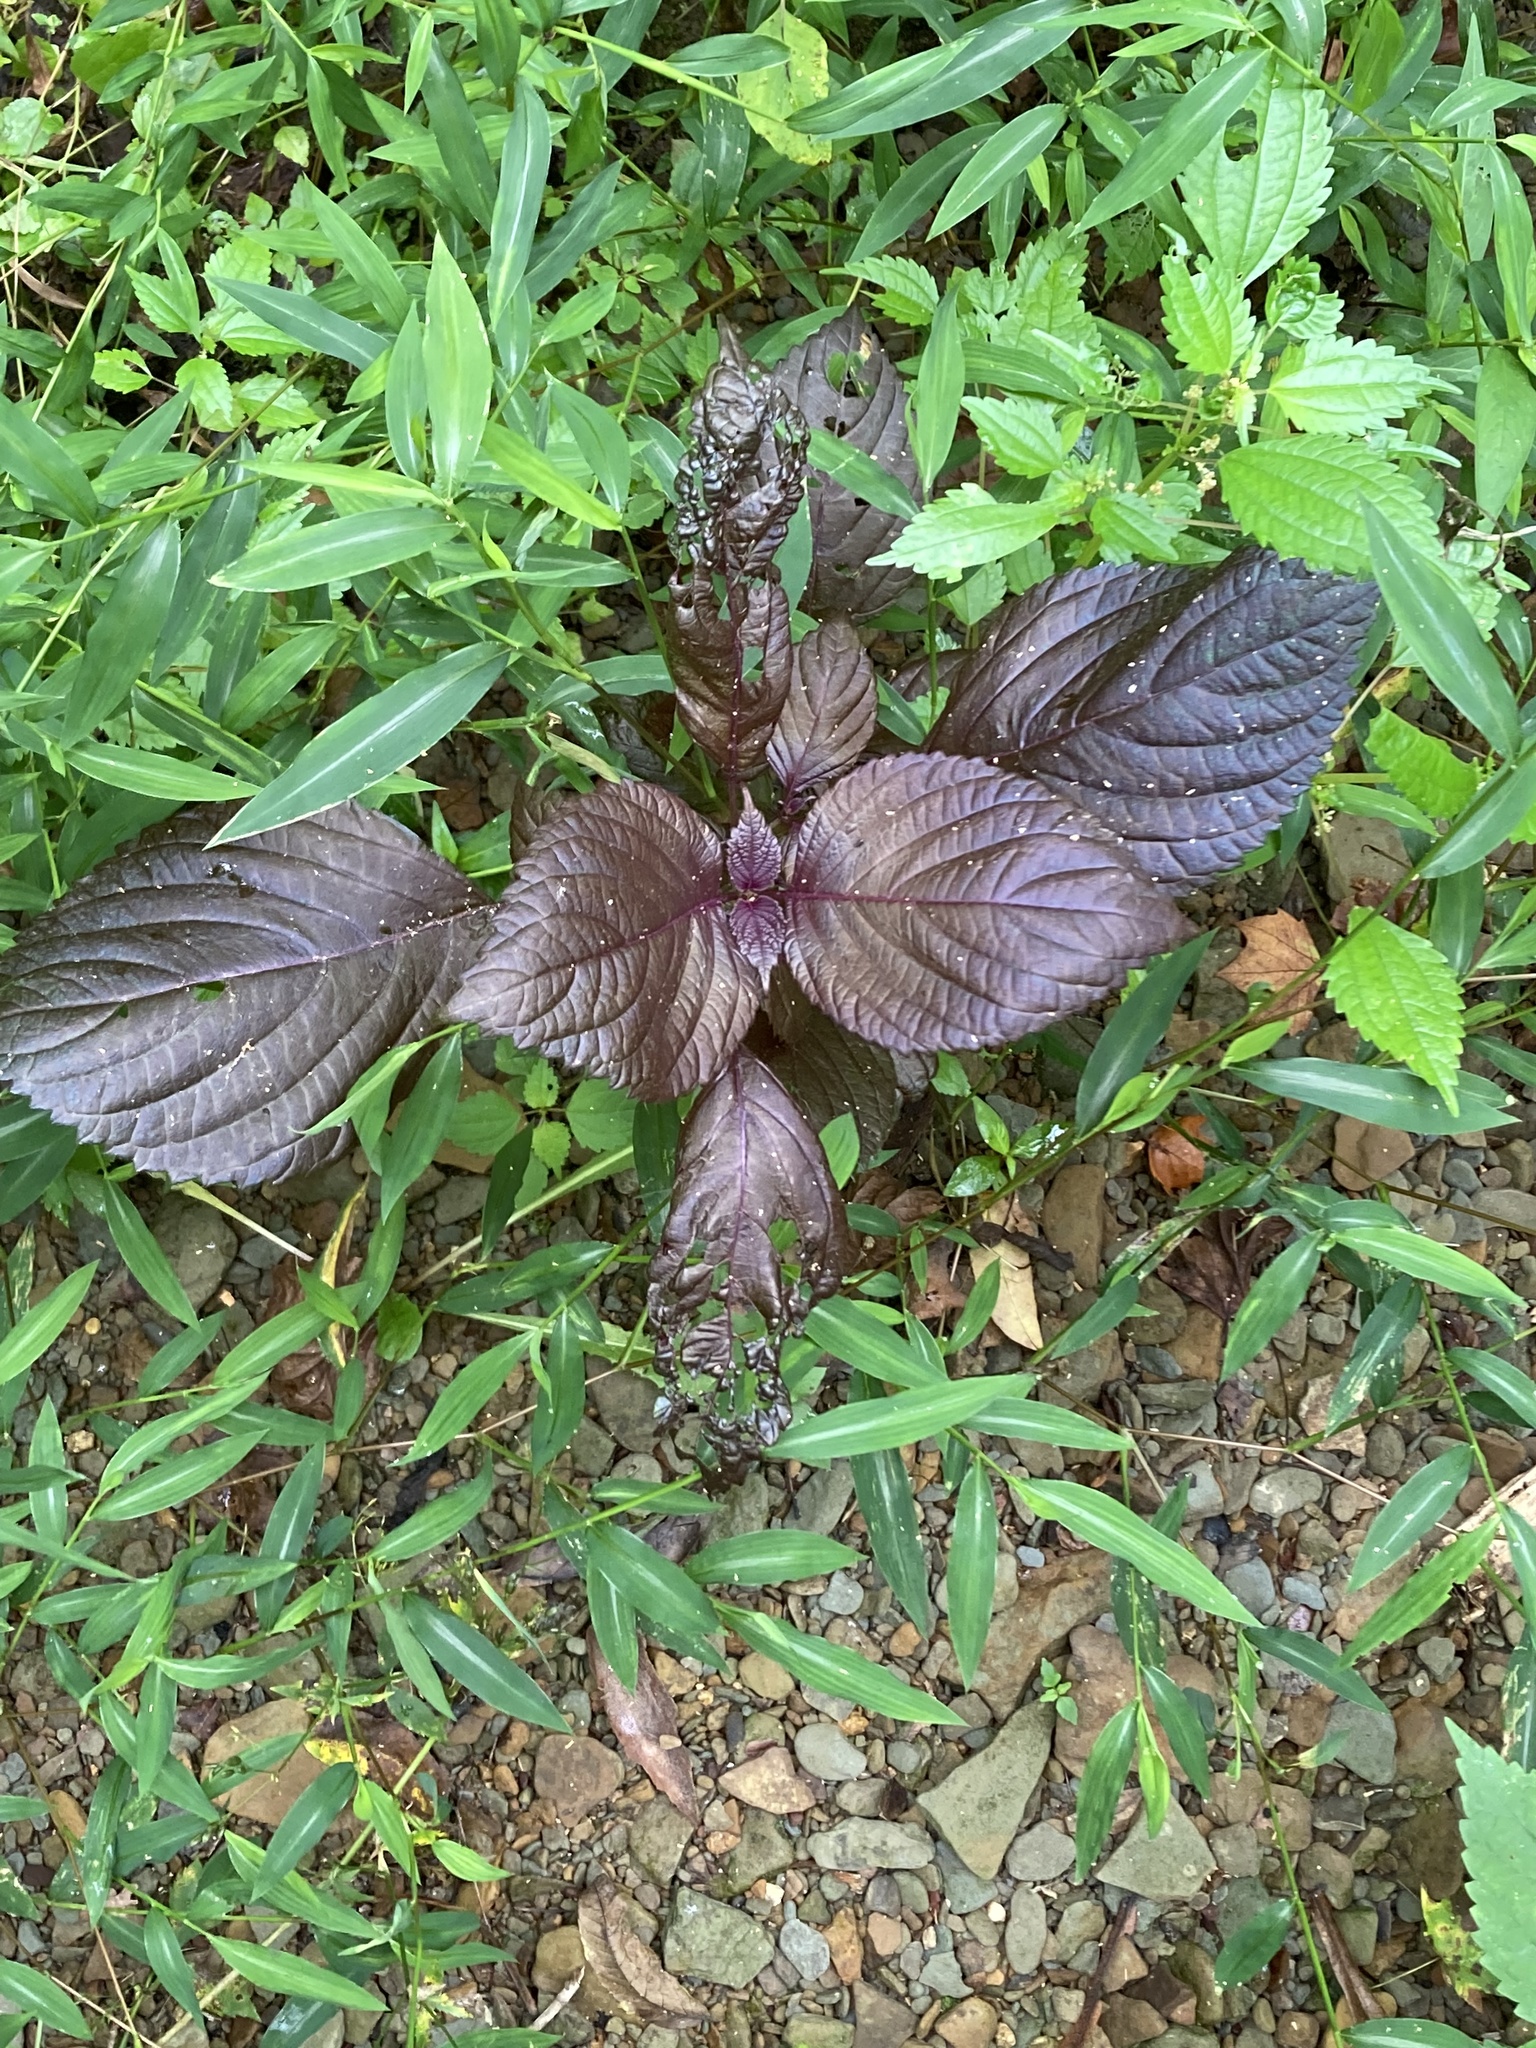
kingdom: Plantae
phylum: Tracheophyta
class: Magnoliopsida
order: Lamiales
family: Lamiaceae
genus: Perilla
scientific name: Perilla frutescens
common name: Perilla
